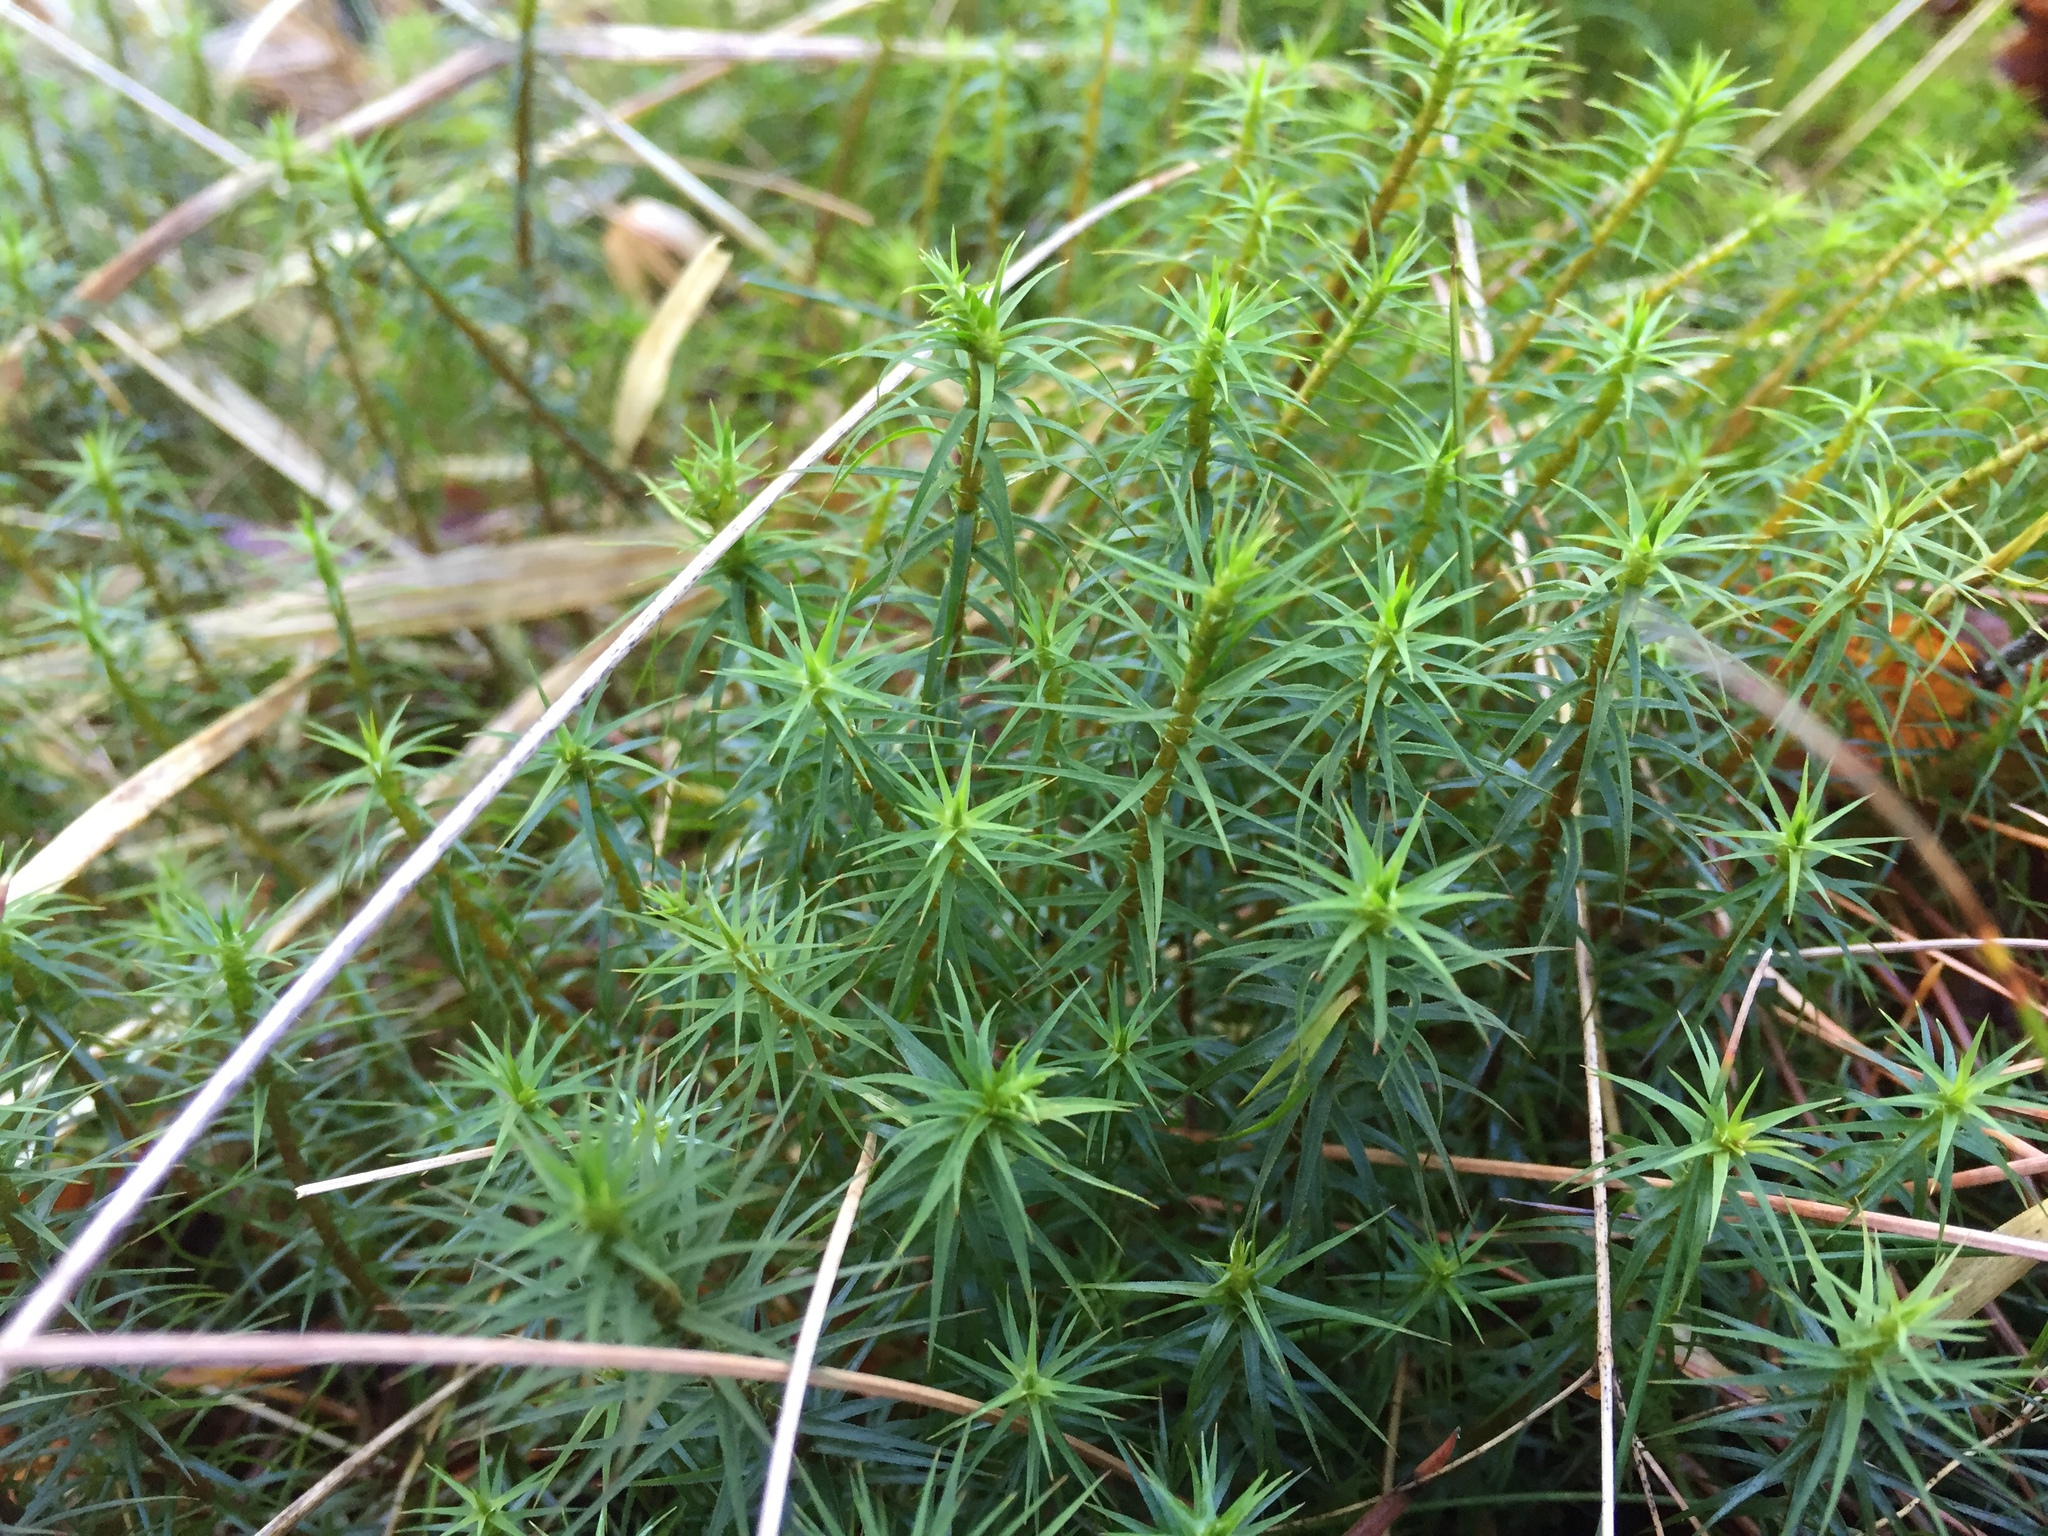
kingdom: Plantae
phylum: Bryophyta
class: Polytrichopsida
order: Polytrichales
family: Polytrichaceae
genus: Polytrichum
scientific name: Polytrichum commune
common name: Common haircap
